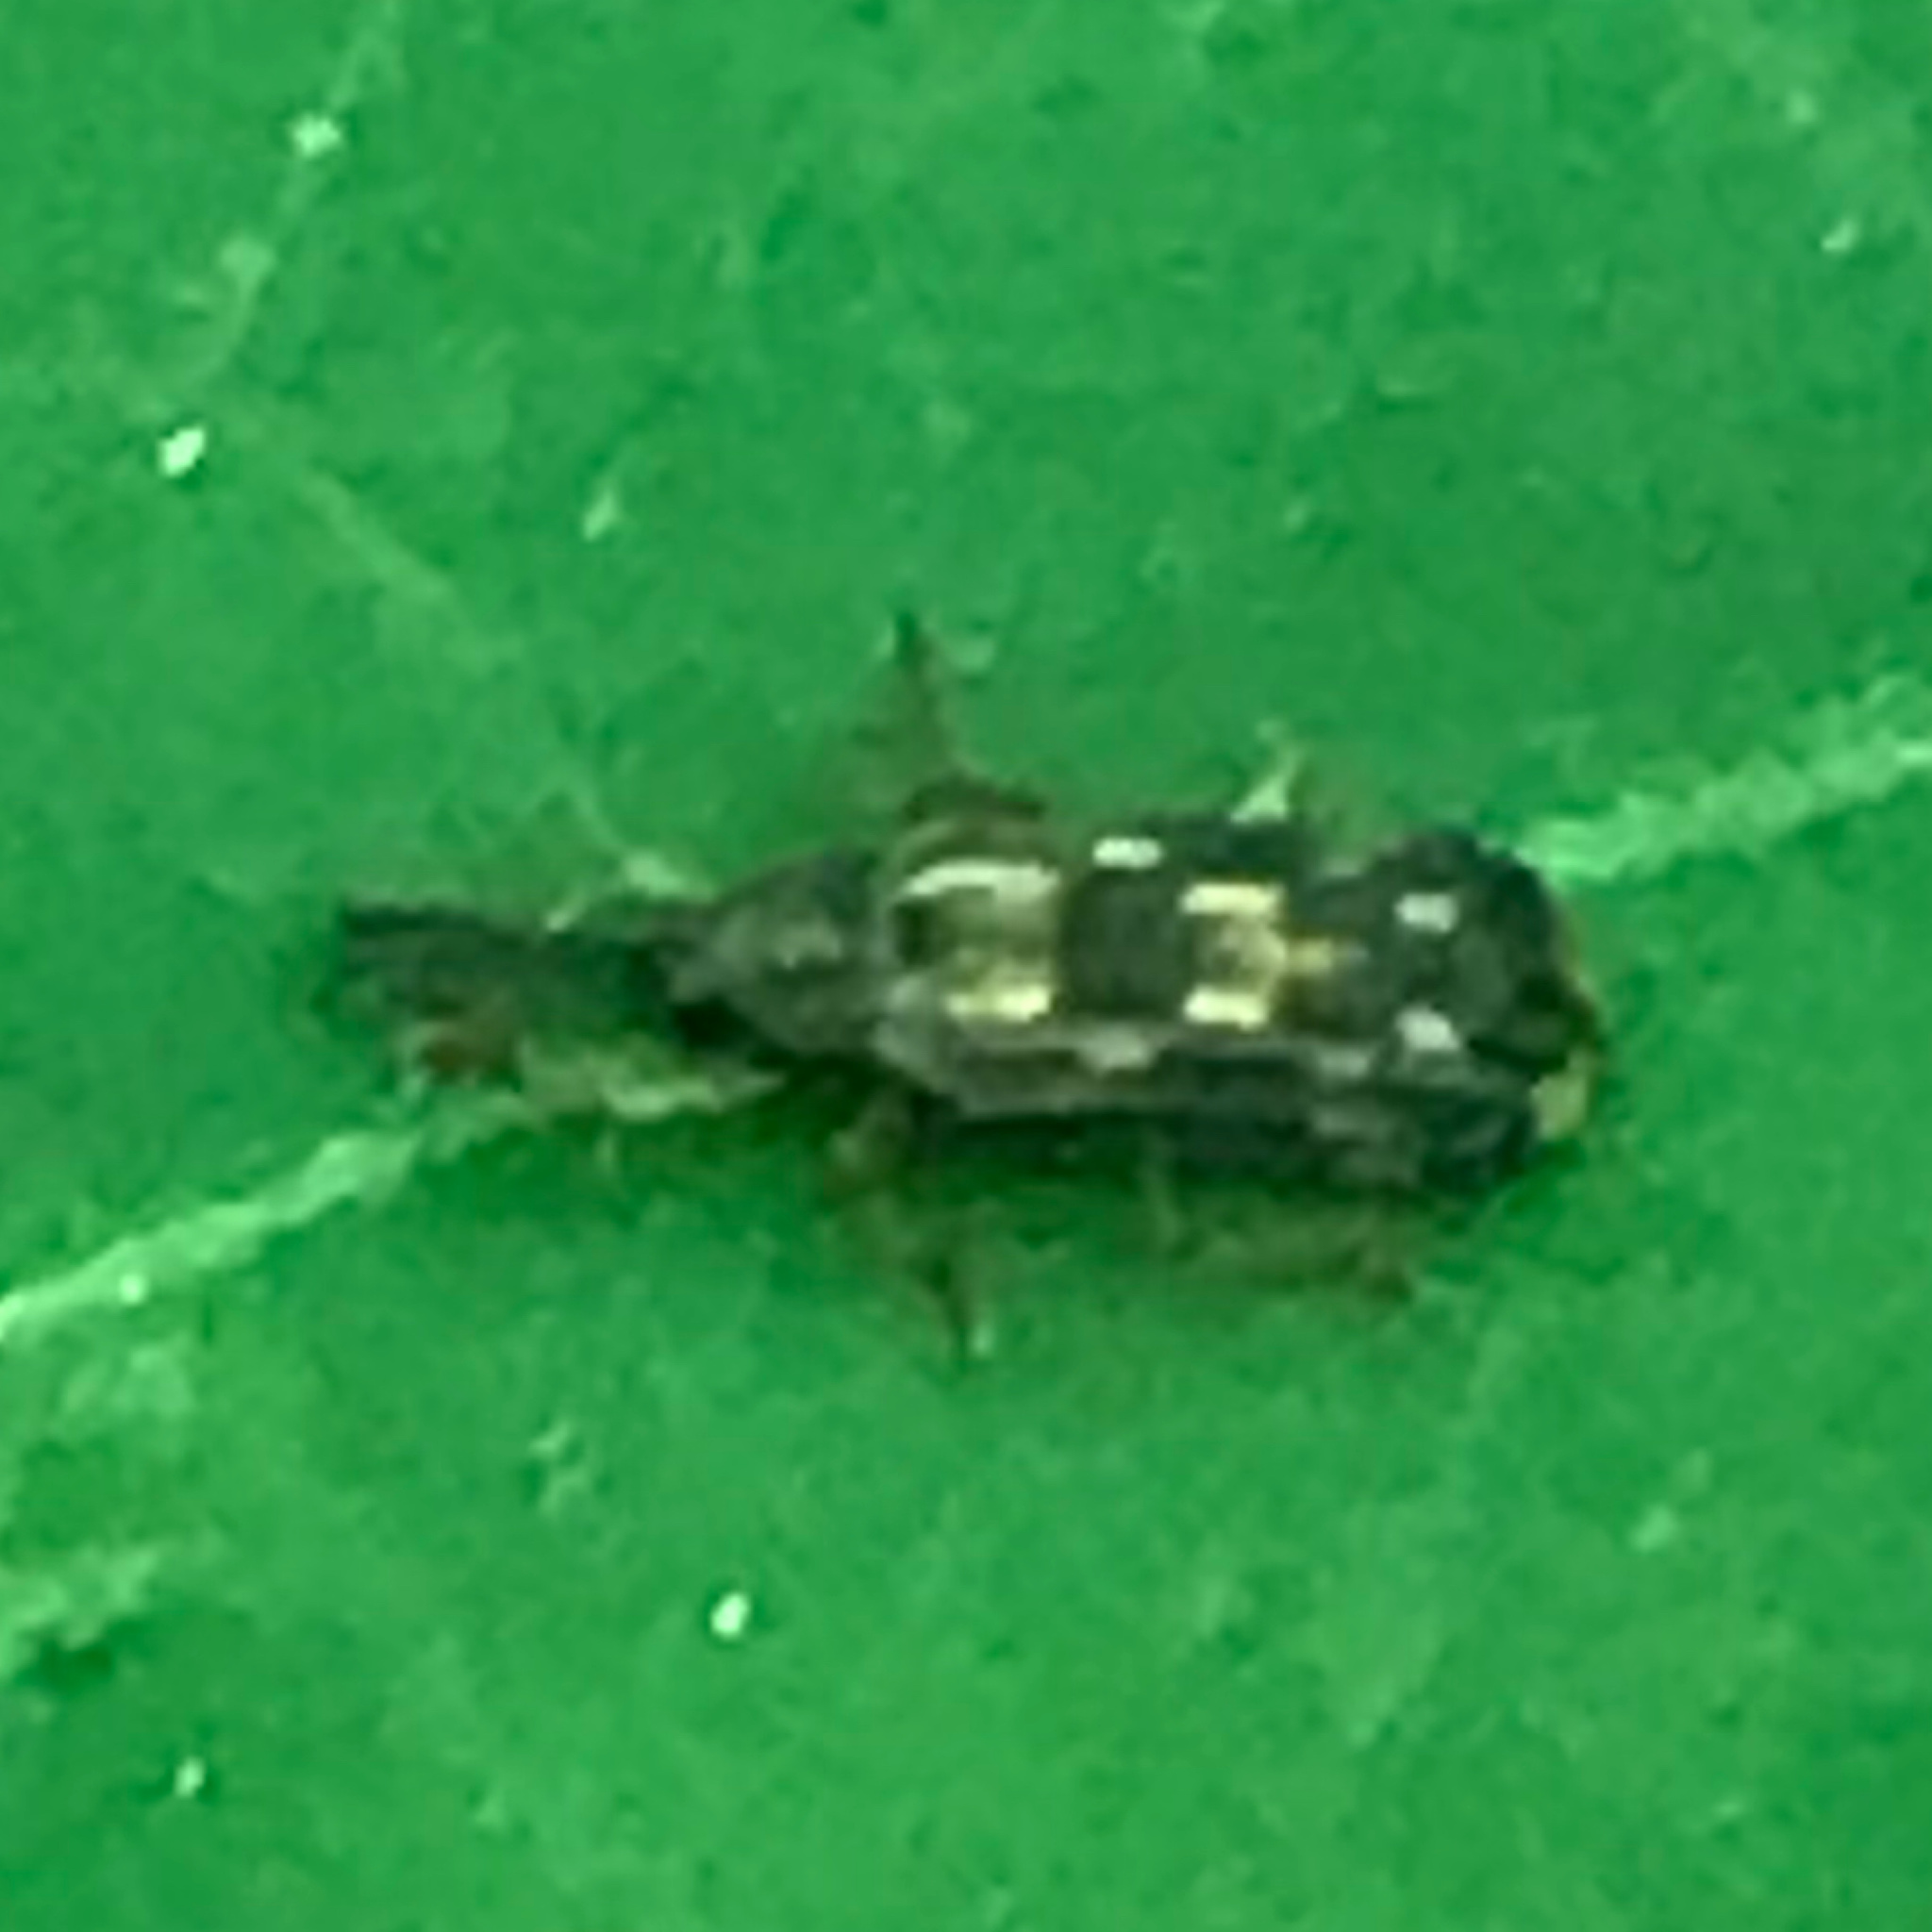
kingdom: Animalia
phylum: Arthropoda
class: Insecta
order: Coleoptera
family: Chrysomelidae
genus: Sumitrosis
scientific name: Sumitrosis inaequalis
